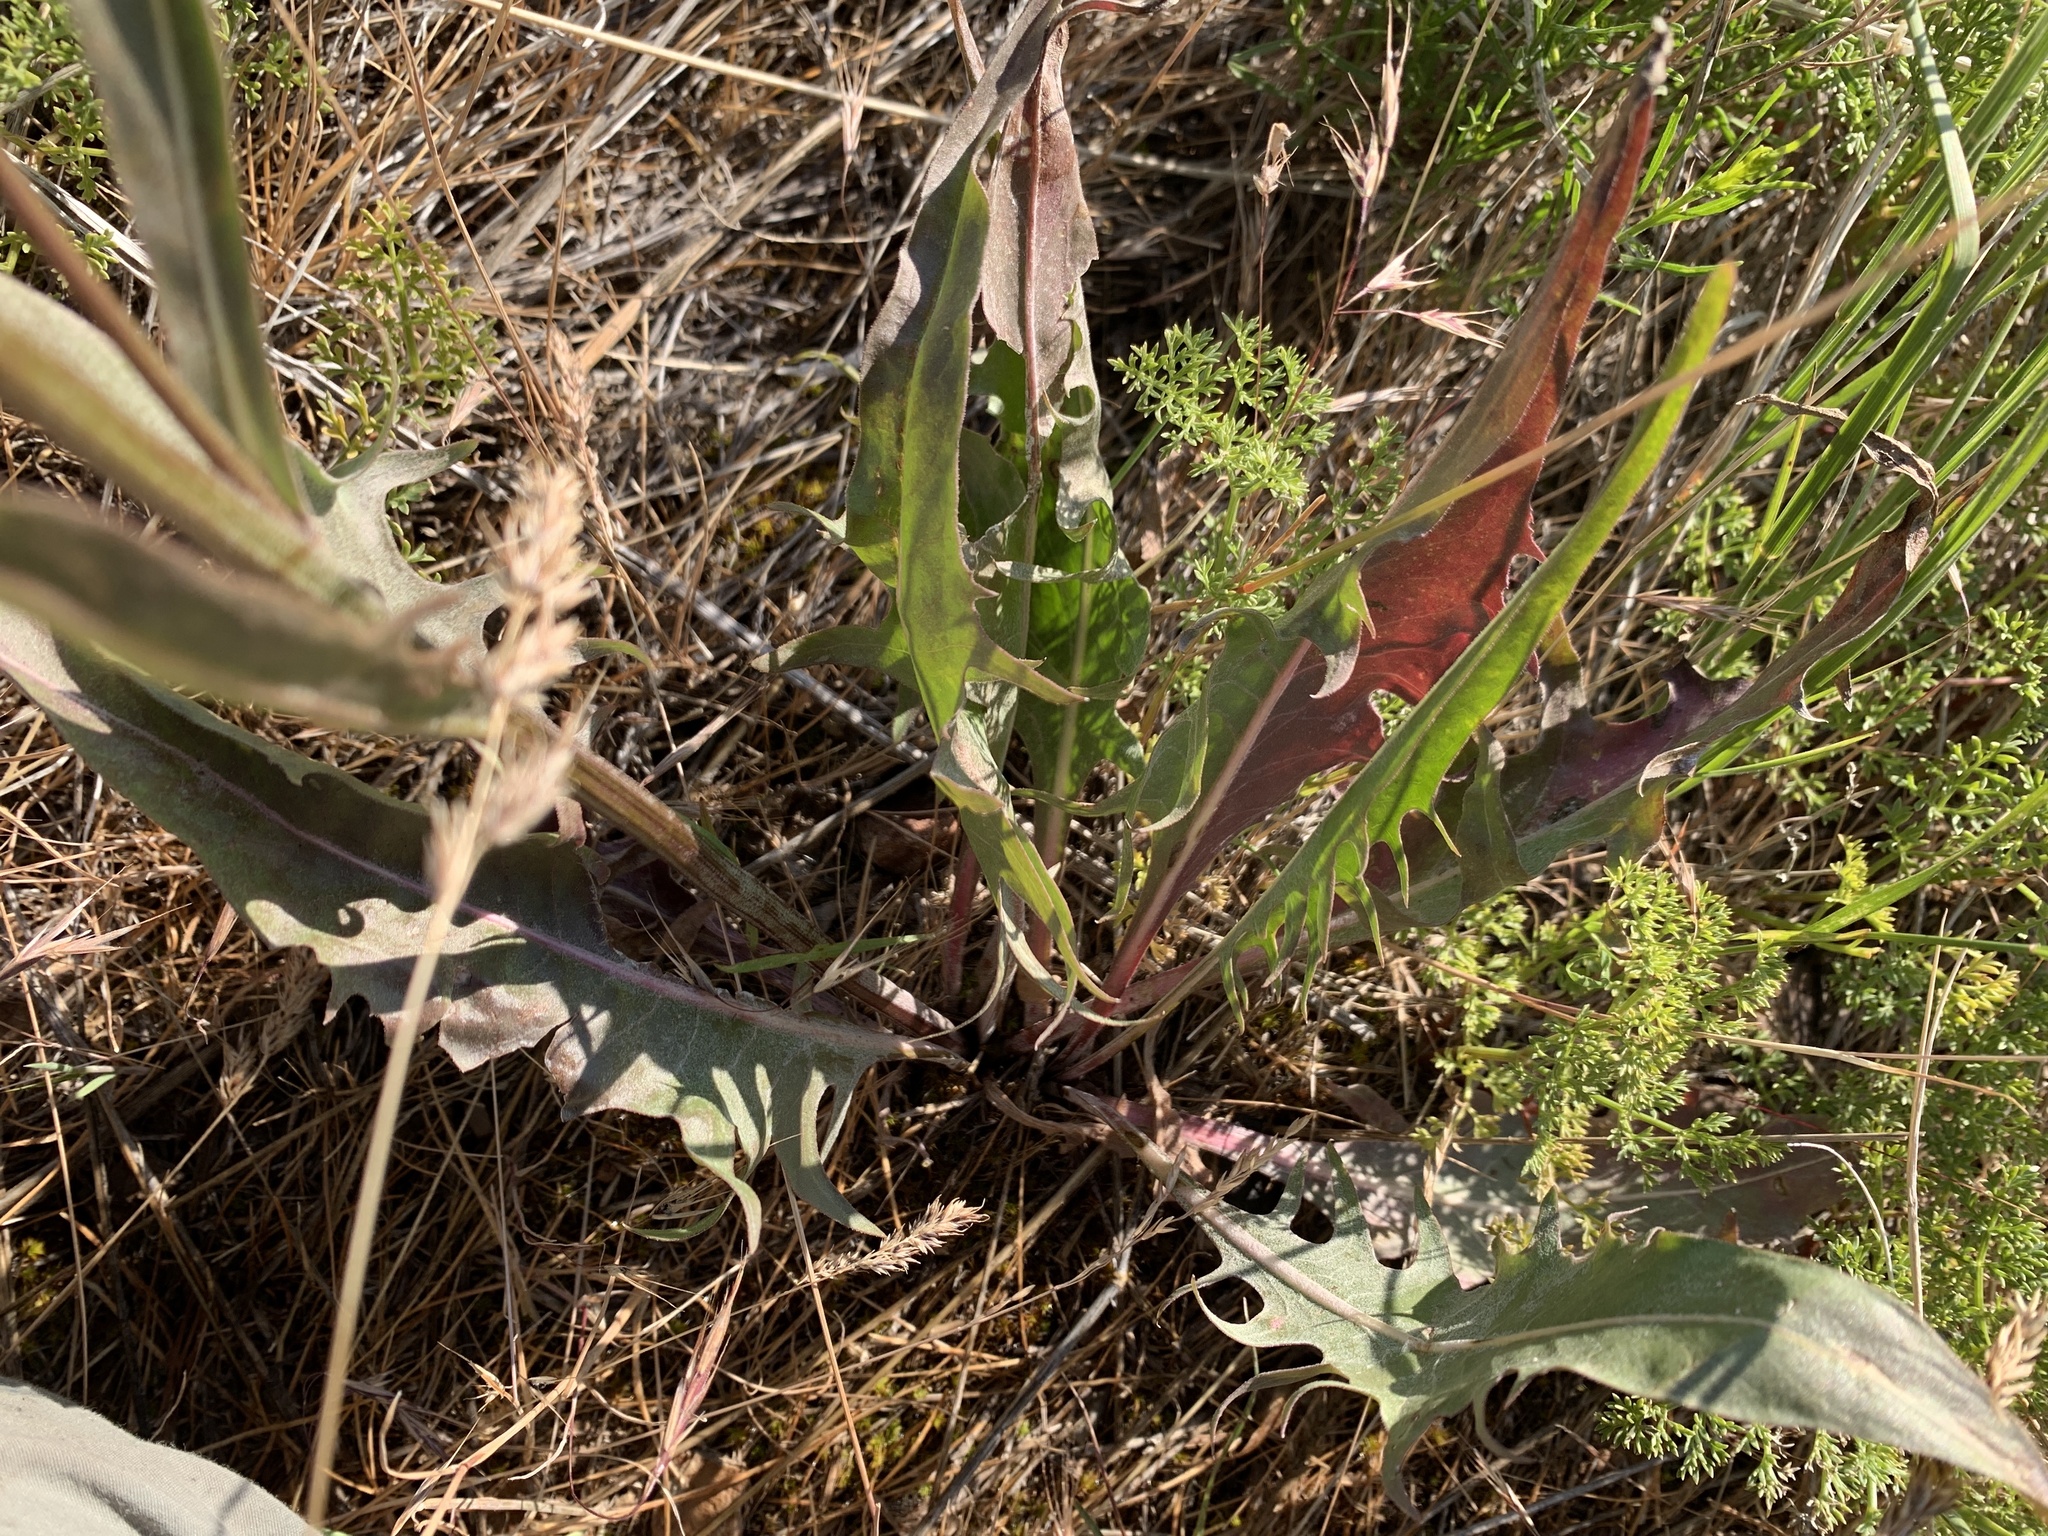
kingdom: Plantae
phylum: Tracheophyta
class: Magnoliopsida
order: Asterales
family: Asteraceae
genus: Crepis
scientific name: Crepis acuminata
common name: Longleaf hawk's-beard
